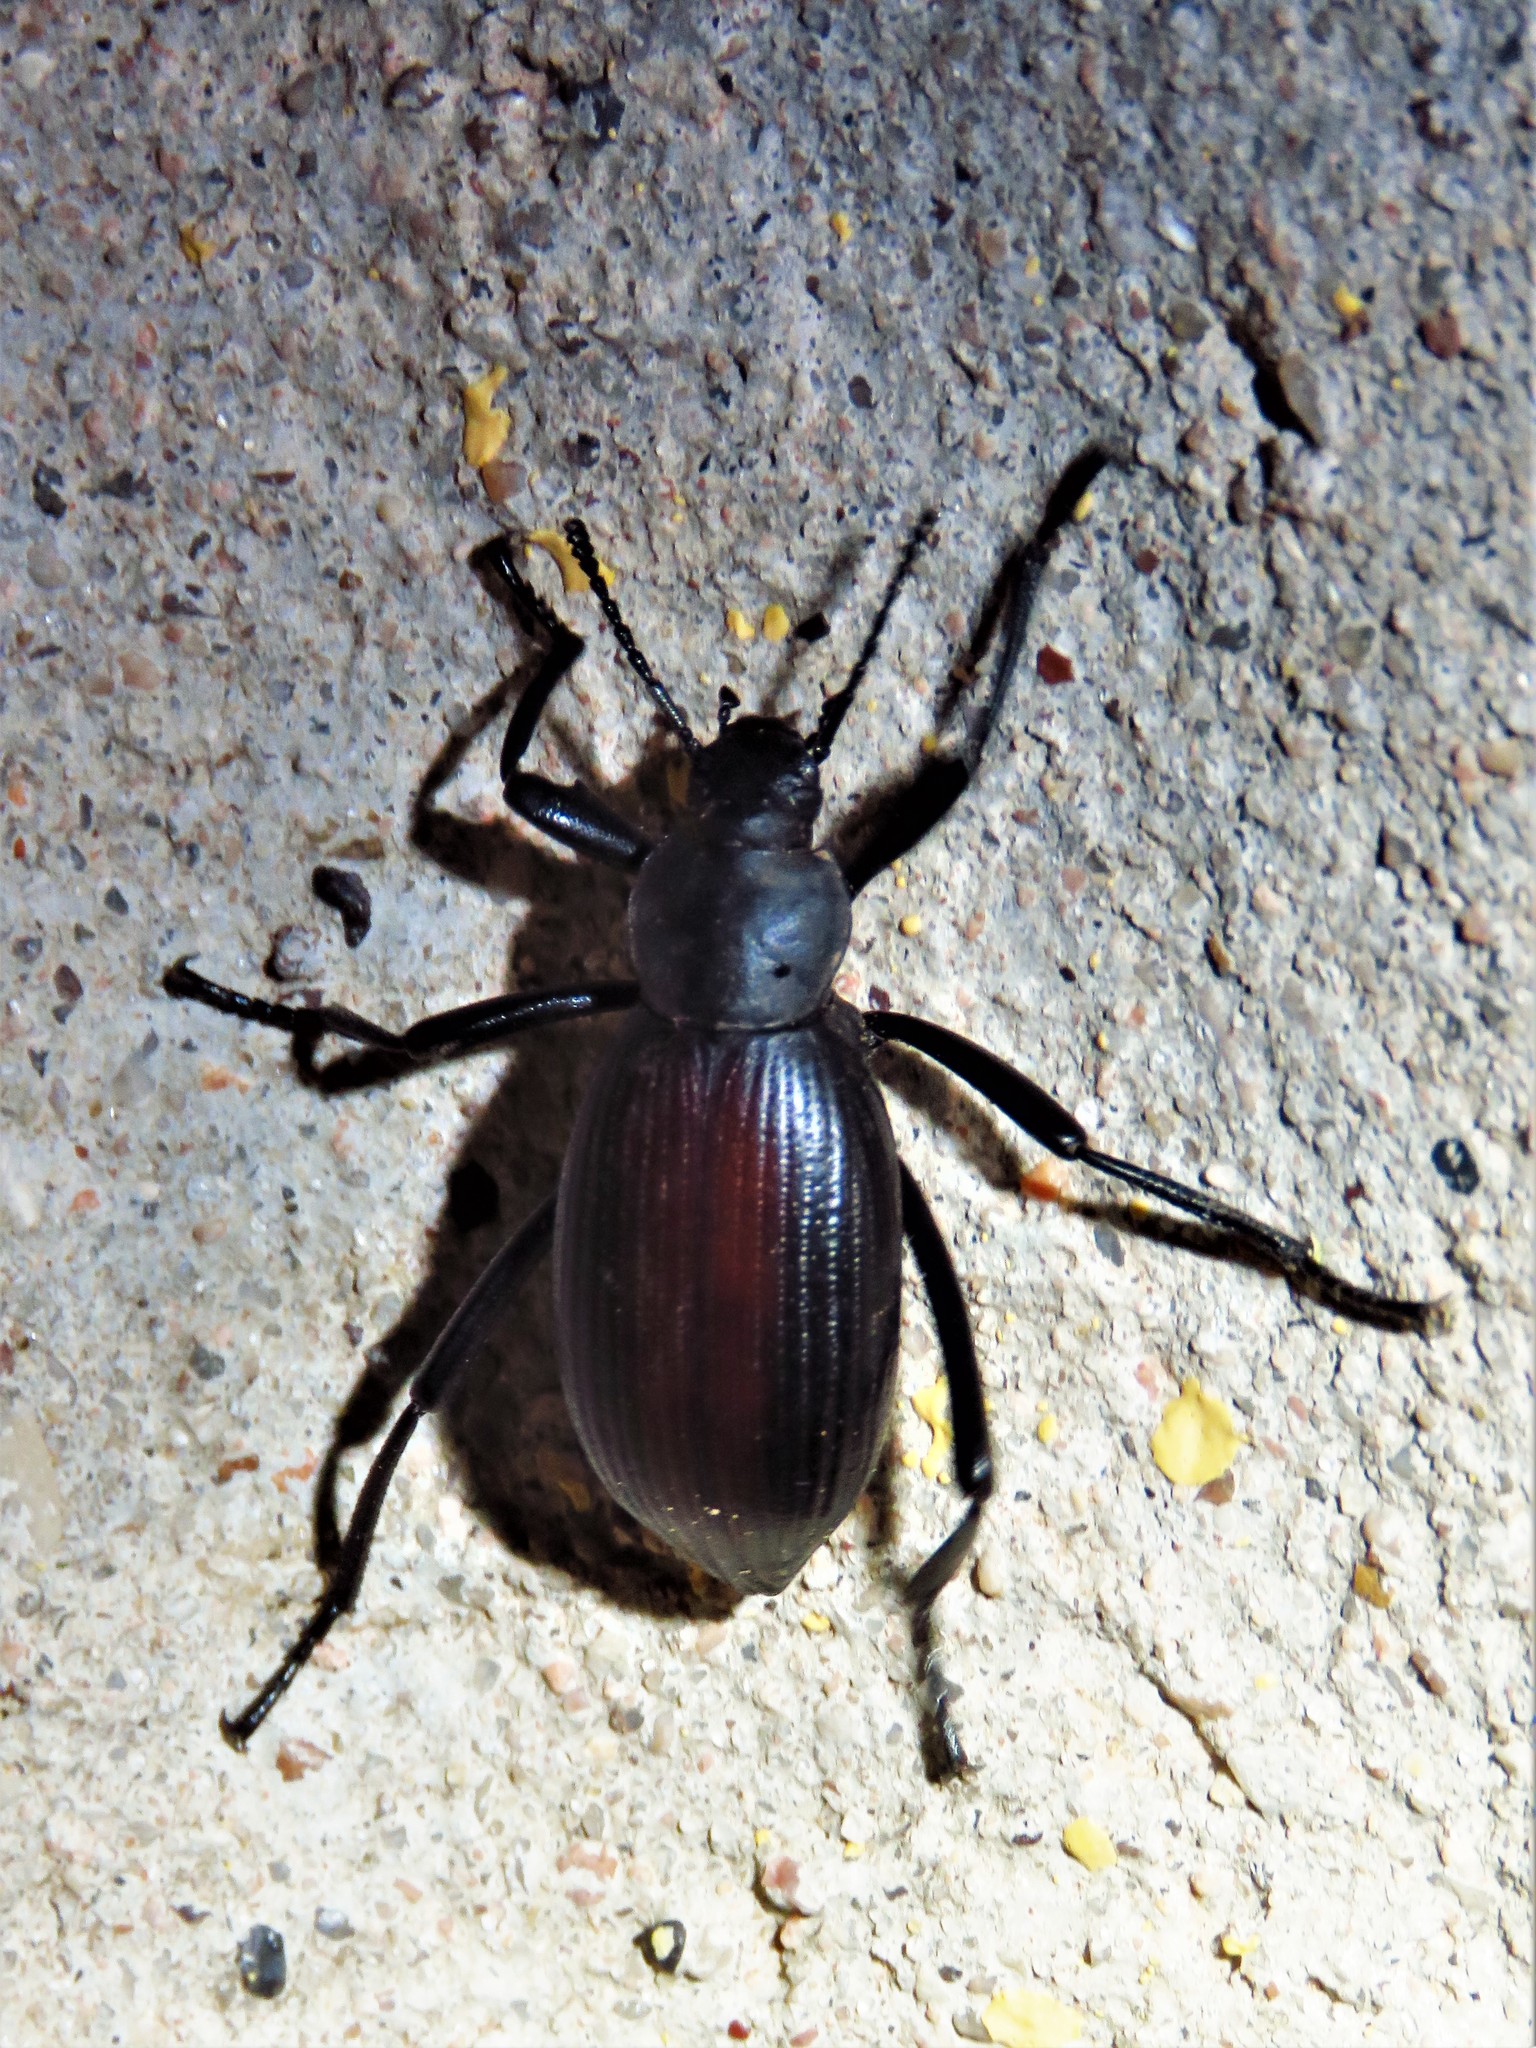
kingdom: Animalia
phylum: Arthropoda
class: Insecta
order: Coleoptera
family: Tenebrionidae
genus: Eleodes
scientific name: Eleodes hispilabris
